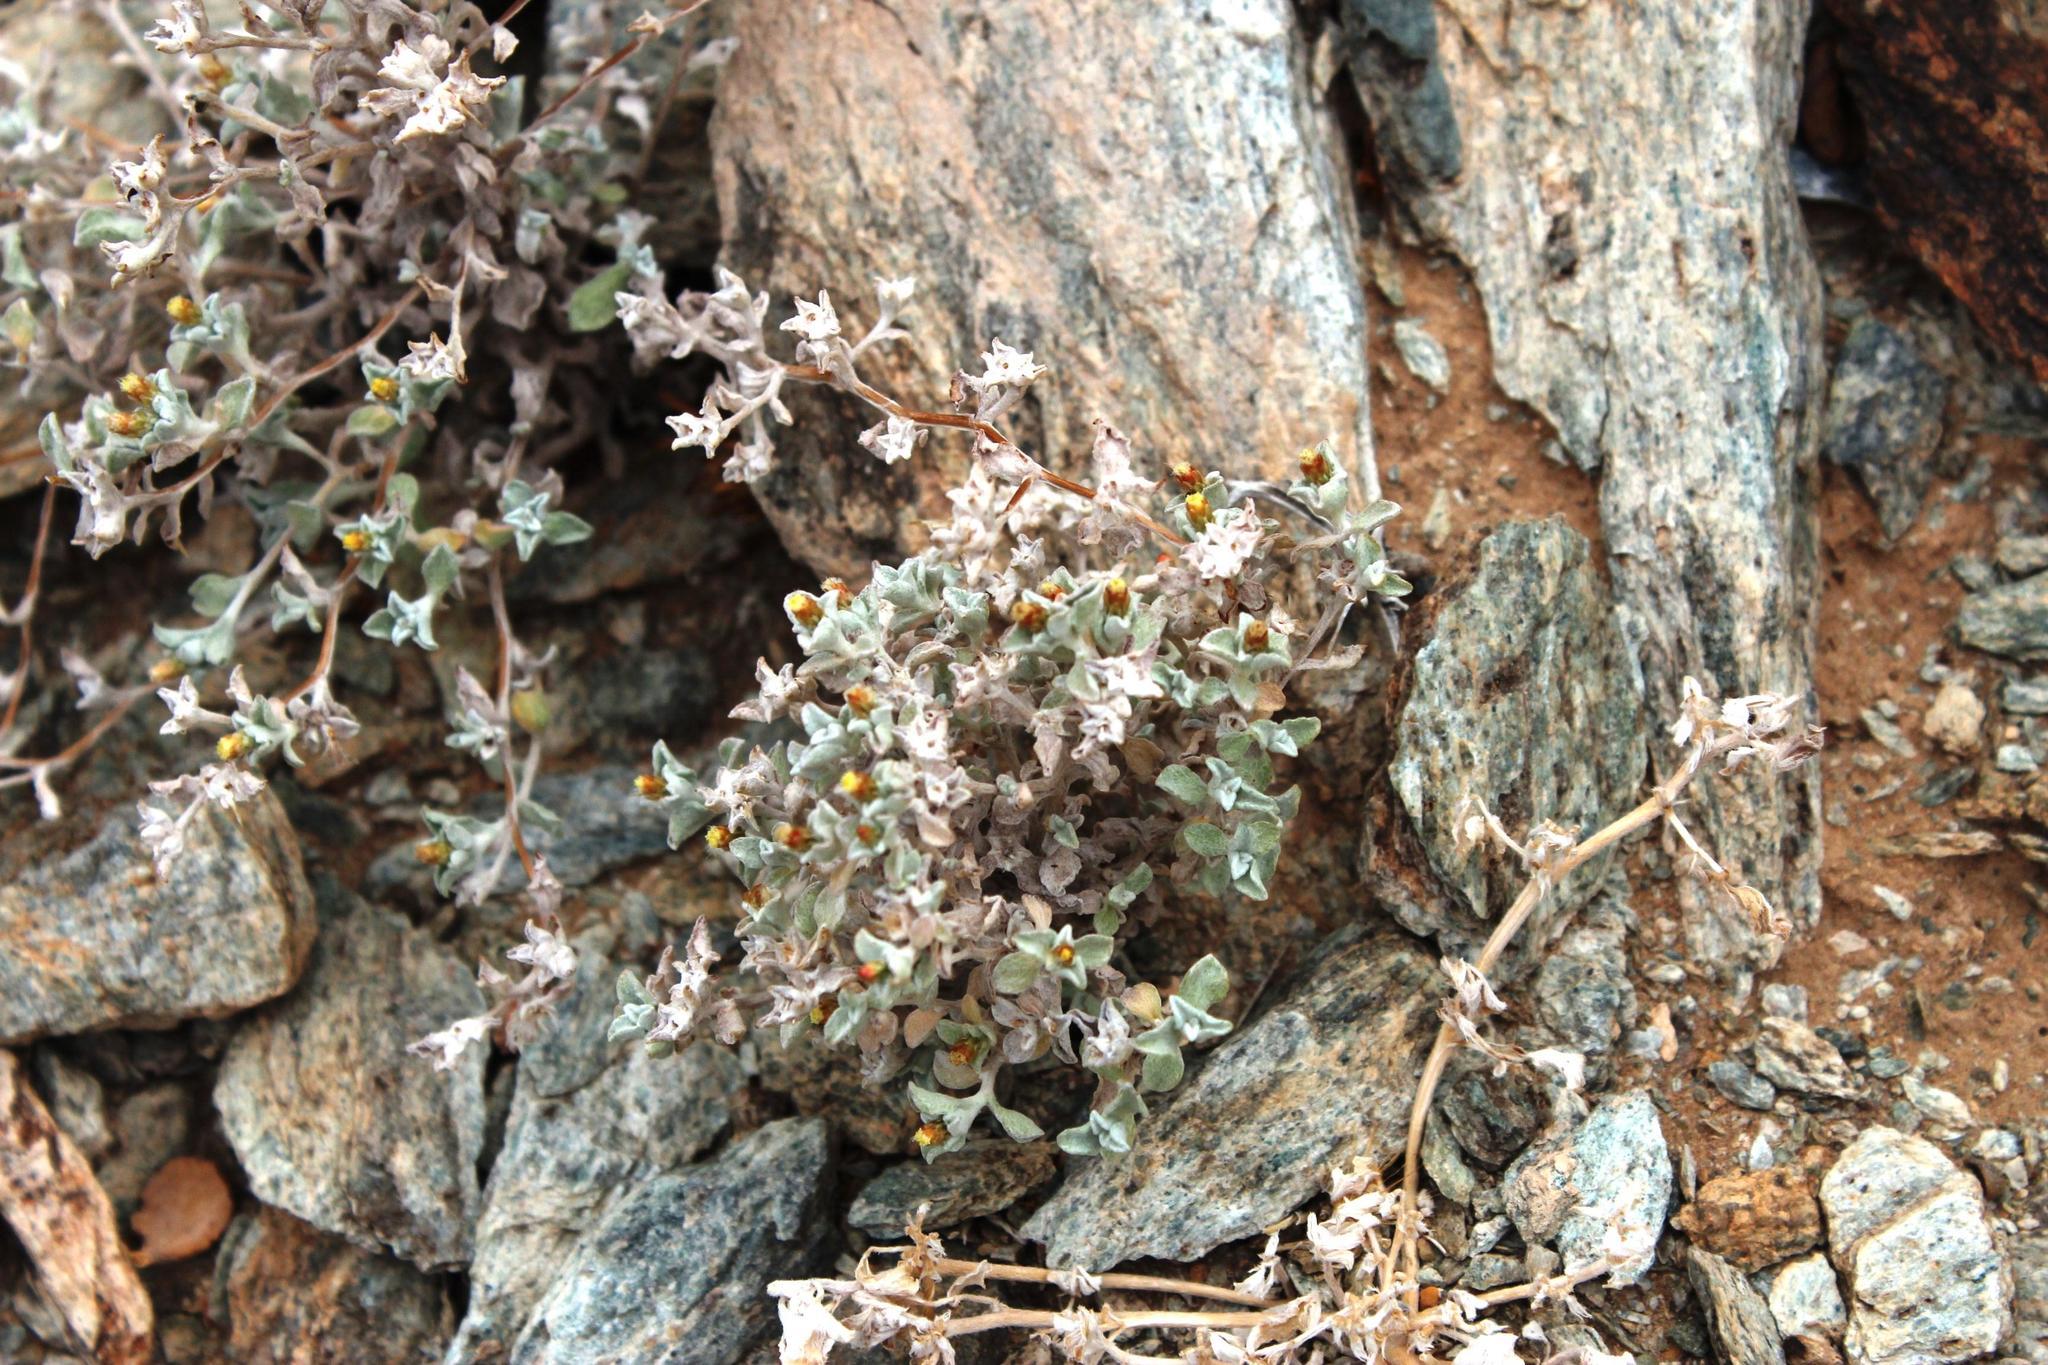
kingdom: Plantae
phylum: Tracheophyta
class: Magnoliopsida
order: Asterales
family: Asteraceae
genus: Helichrysum
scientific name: Helichrysum obtusum
